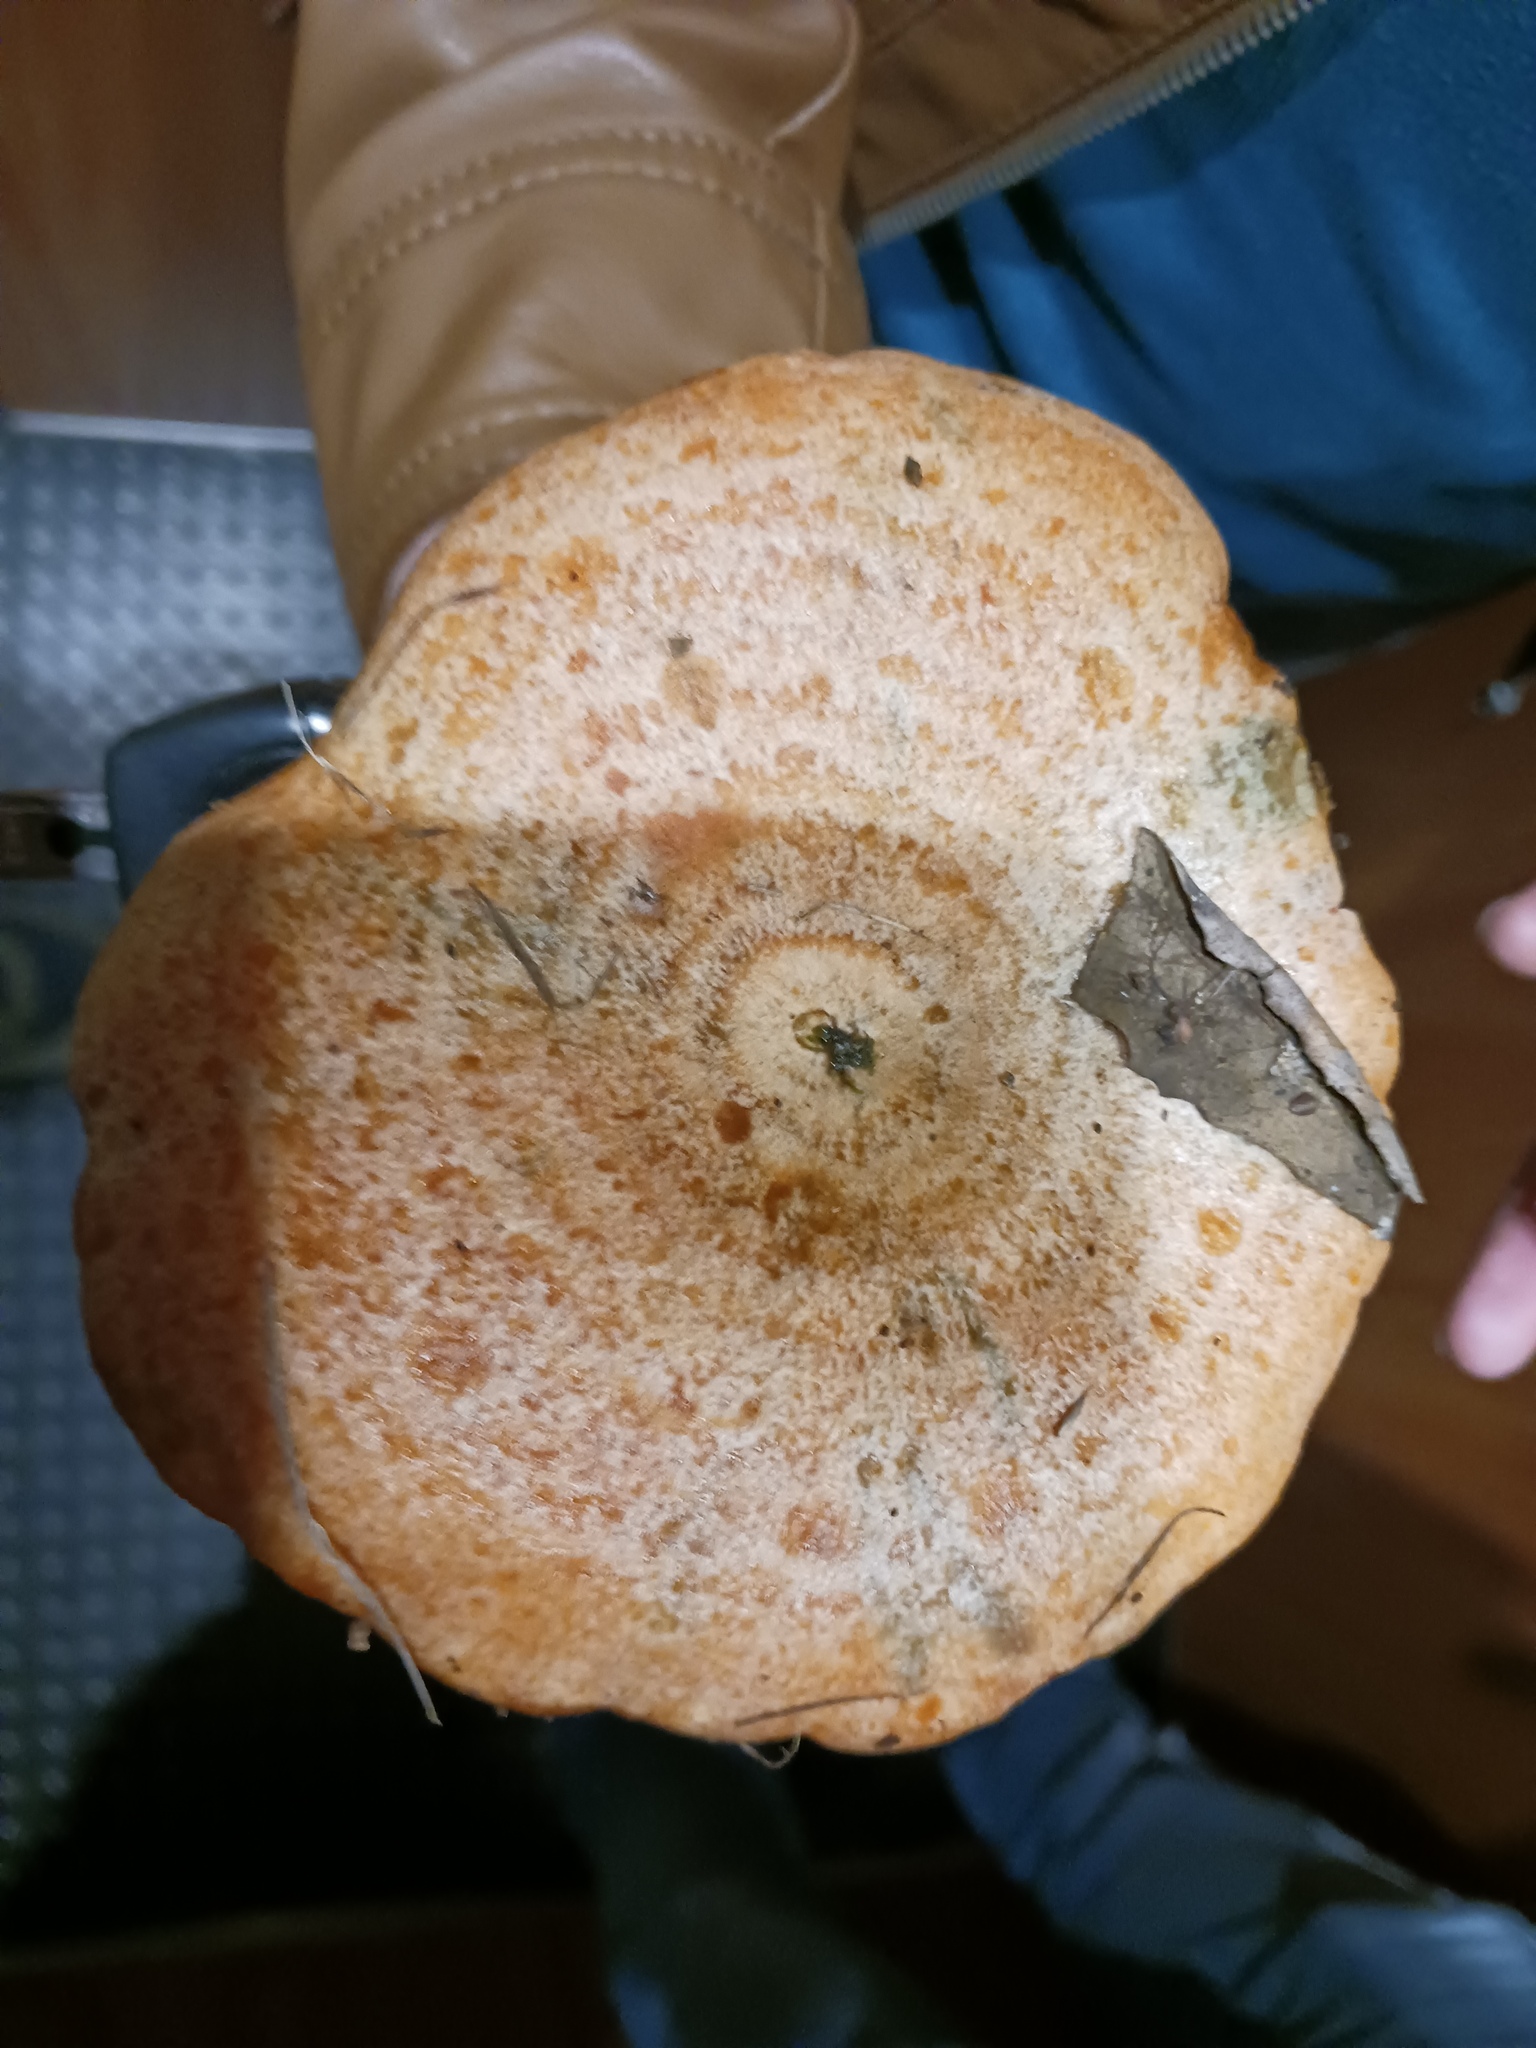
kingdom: Fungi
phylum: Basidiomycota
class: Agaricomycetes
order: Russulales
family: Russulaceae
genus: Lactarius
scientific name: Lactarius deliciosus
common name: Saffron milk-cap
